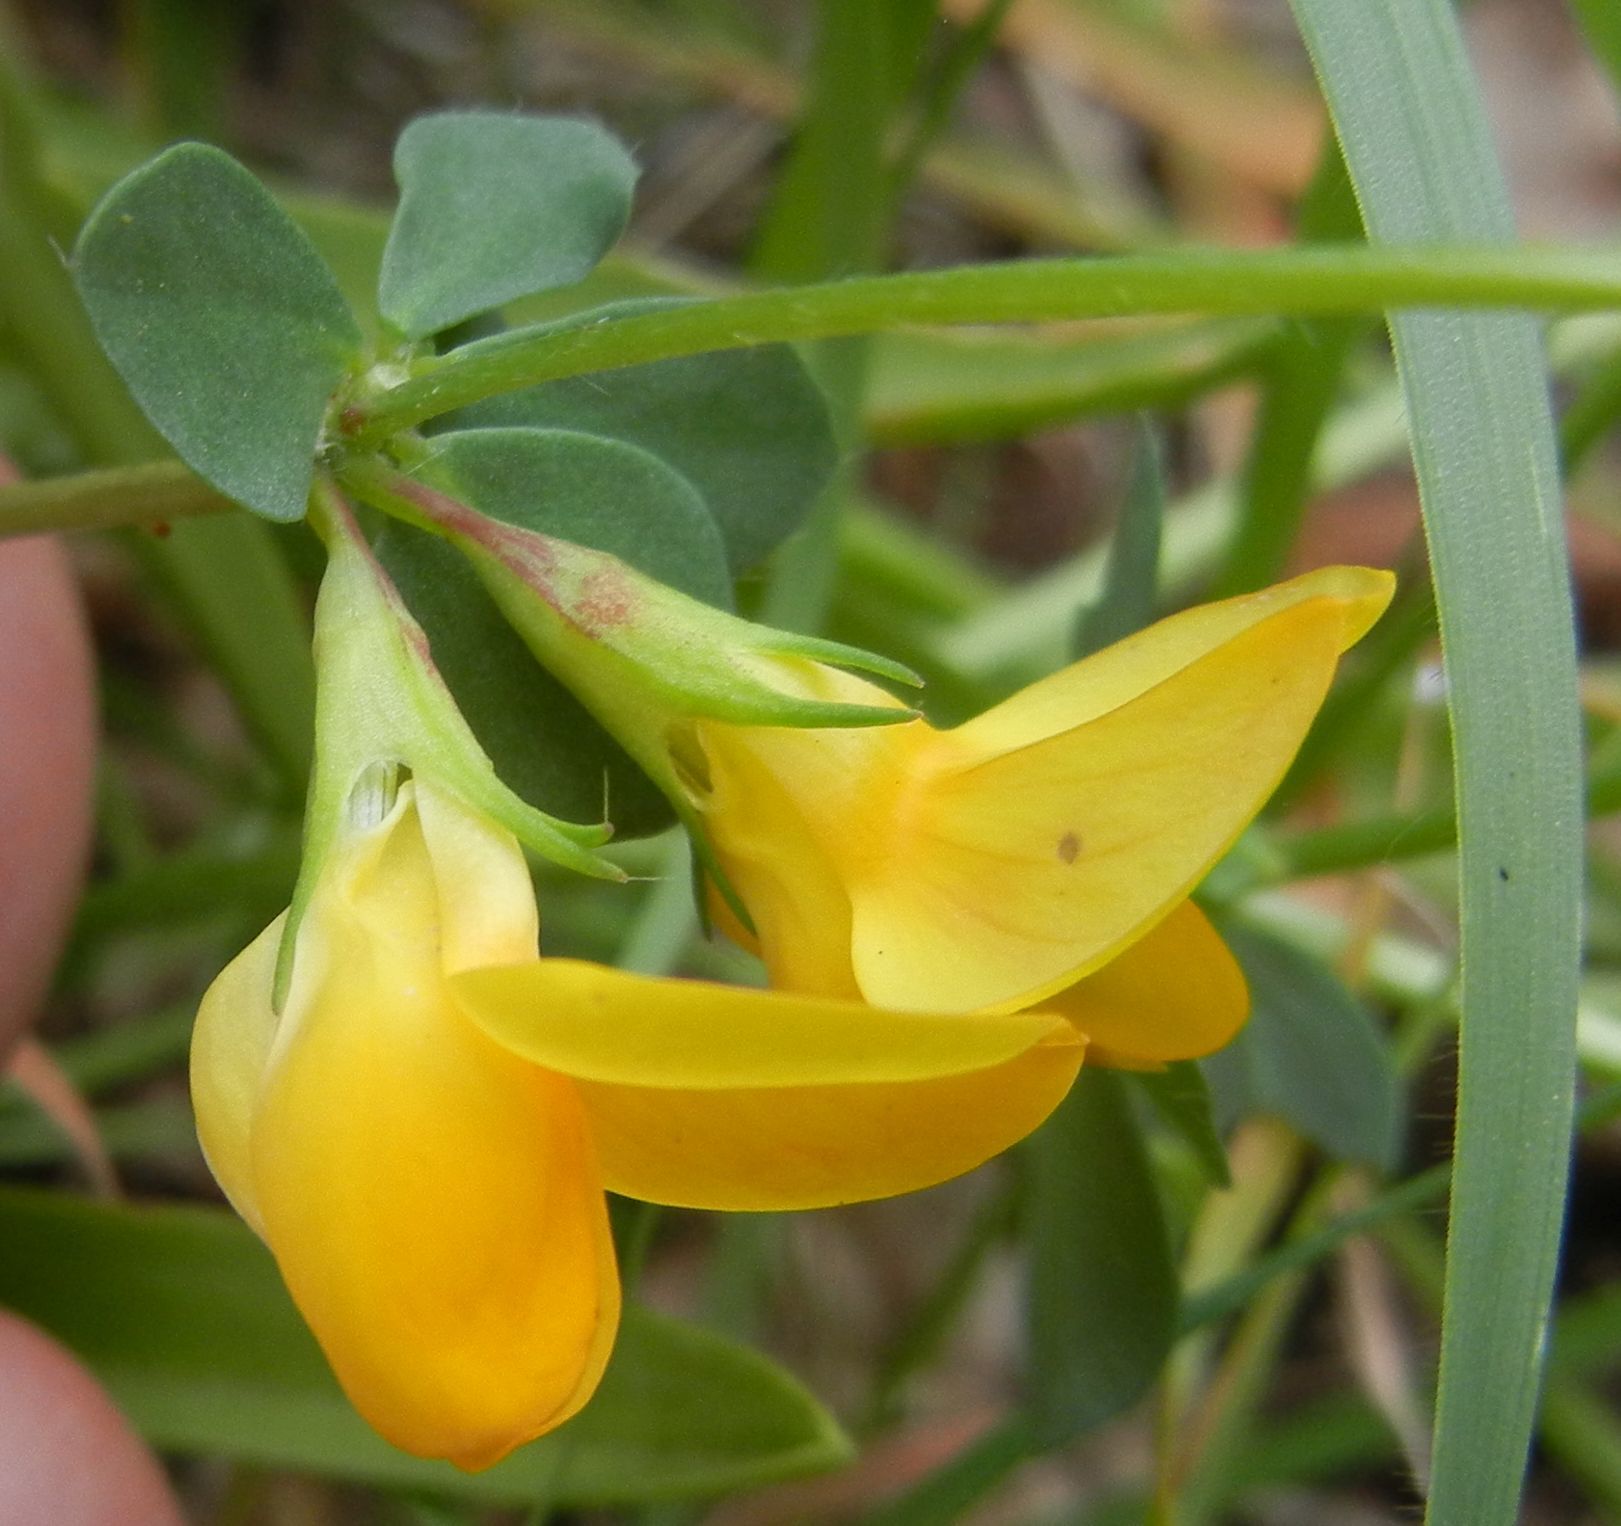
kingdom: Plantae
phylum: Tracheophyta
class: Magnoliopsida
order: Fabales
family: Fabaceae
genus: Lotus
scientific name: Lotus corniculatus
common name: Common bird's-foot-trefoil
